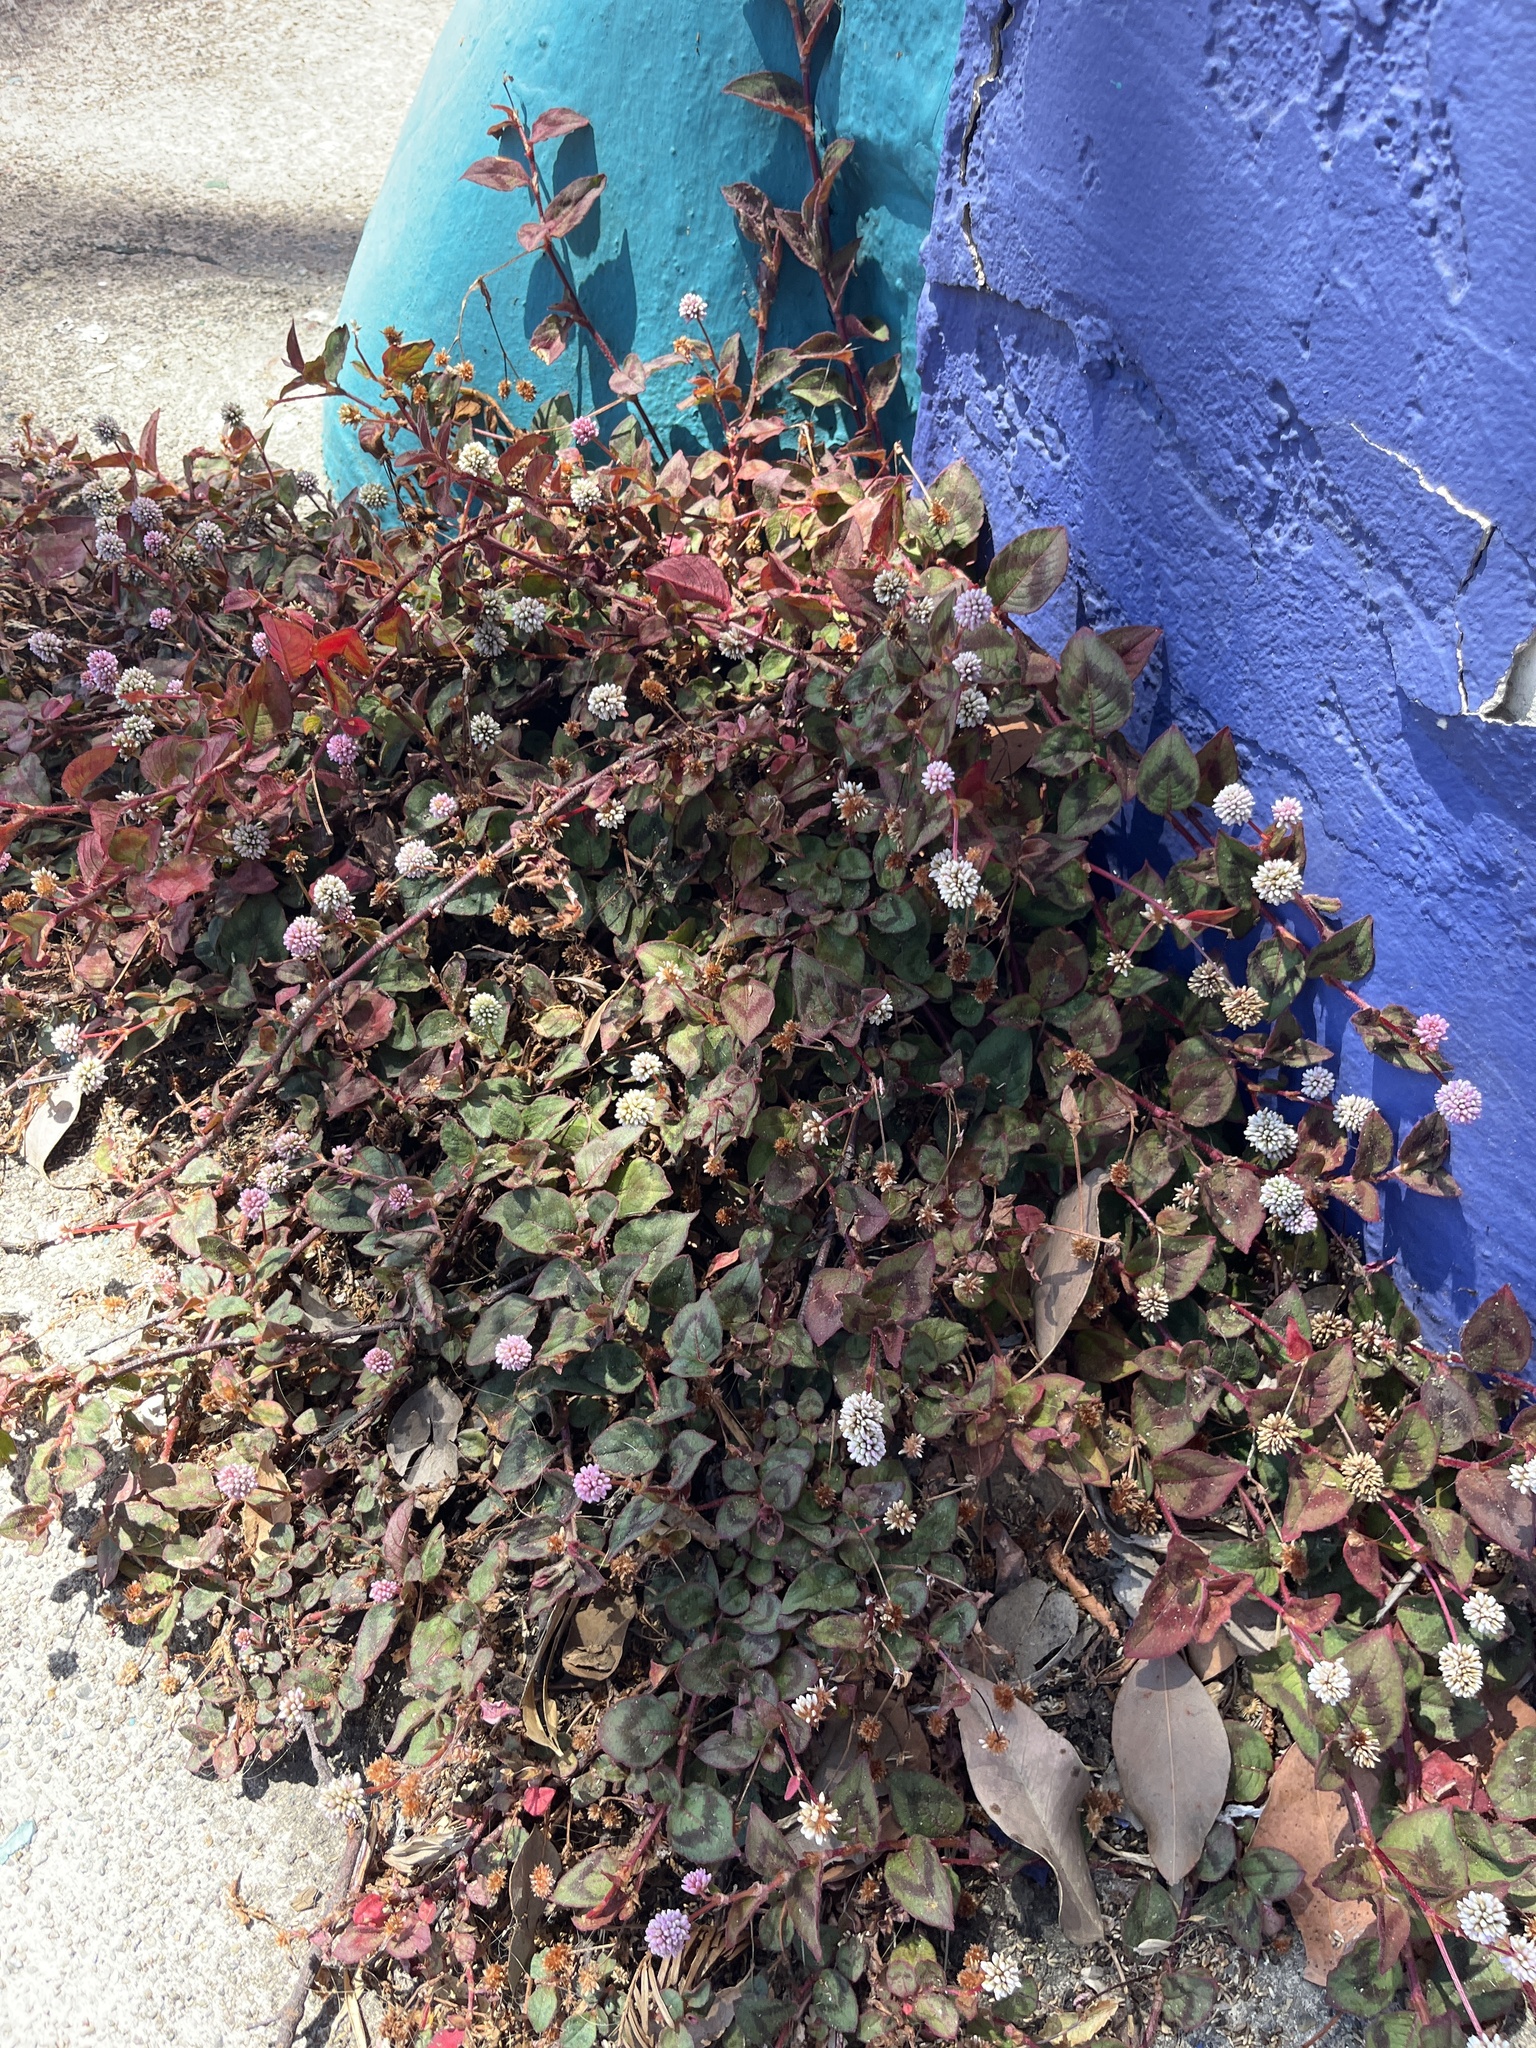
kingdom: Plantae
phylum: Tracheophyta
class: Magnoliopsida
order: Caryophyllales
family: Polygonaceae
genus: Persicaria
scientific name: Persicaria capitata
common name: Pinkhead smartweed
